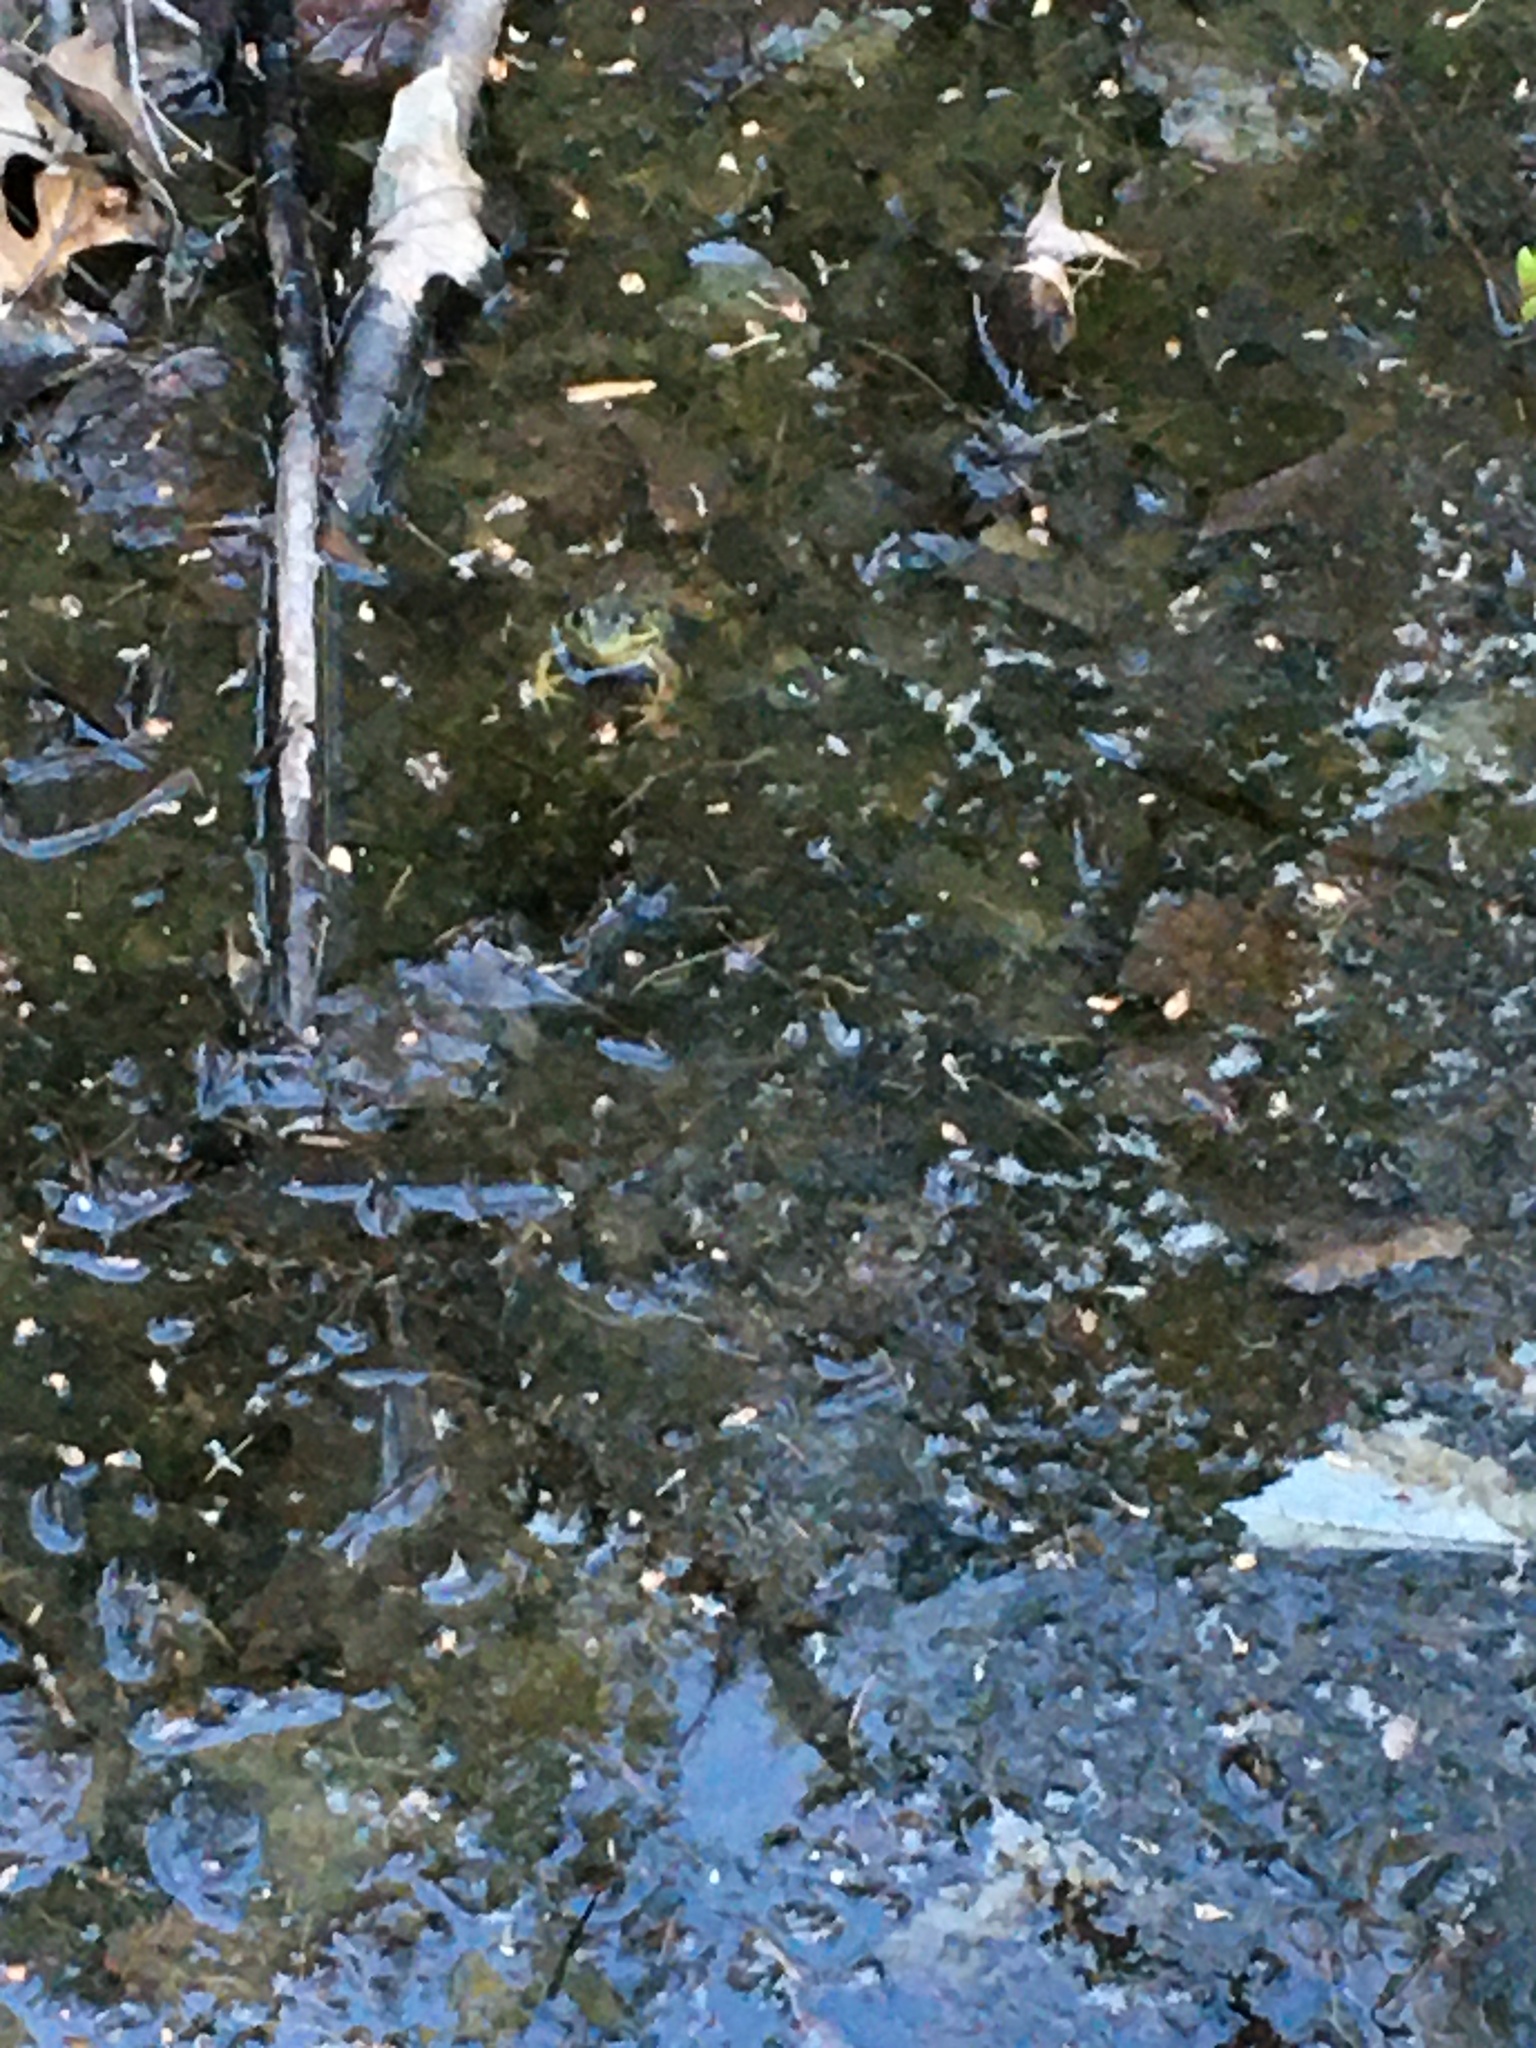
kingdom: Animalia
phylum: Chordata
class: Amphibia
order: Anura
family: Ranidae
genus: Lithobates
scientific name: Lithobates clamitans
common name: Green frog
